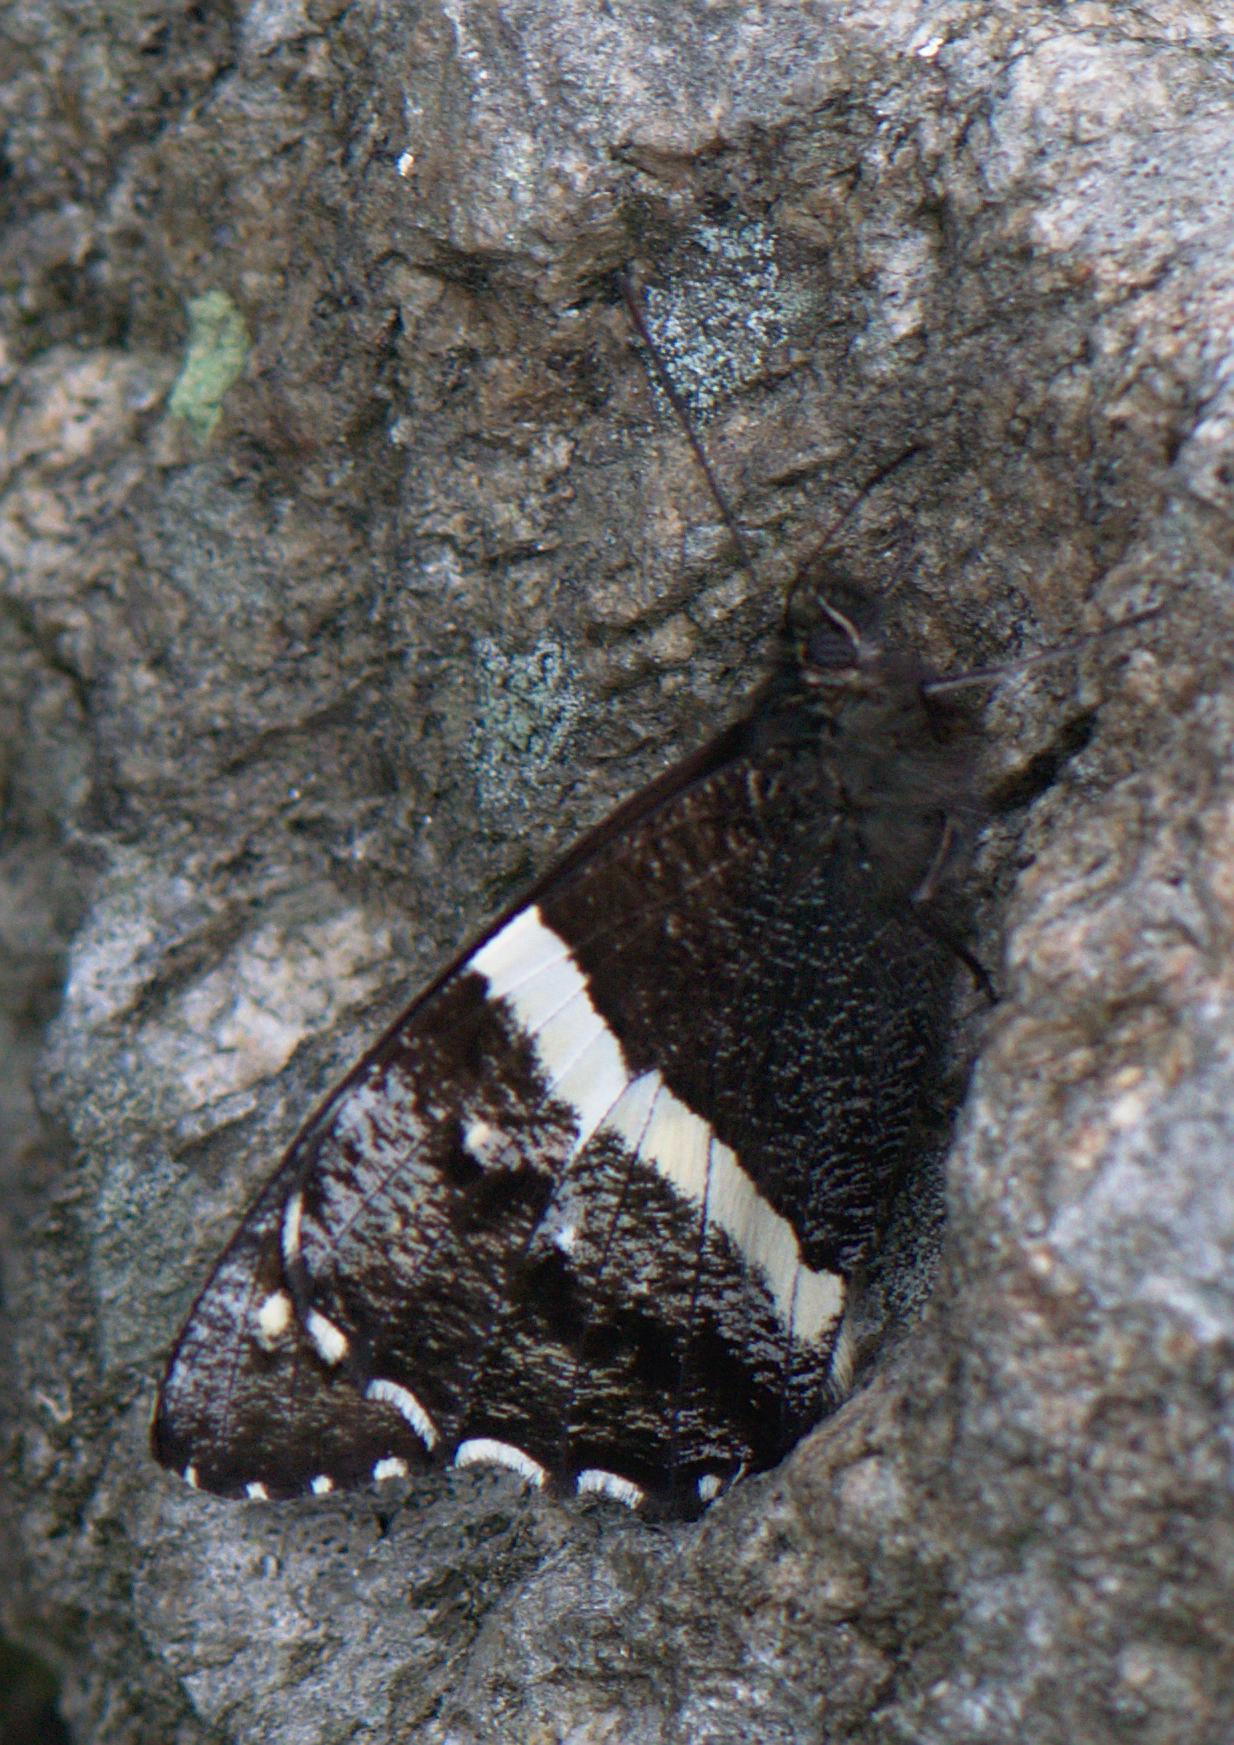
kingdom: Animalia
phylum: Arthropoda
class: Insecta
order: Lepidoptera
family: Nymphalidae
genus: Satyrus
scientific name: Satyrus Aulocera padma
